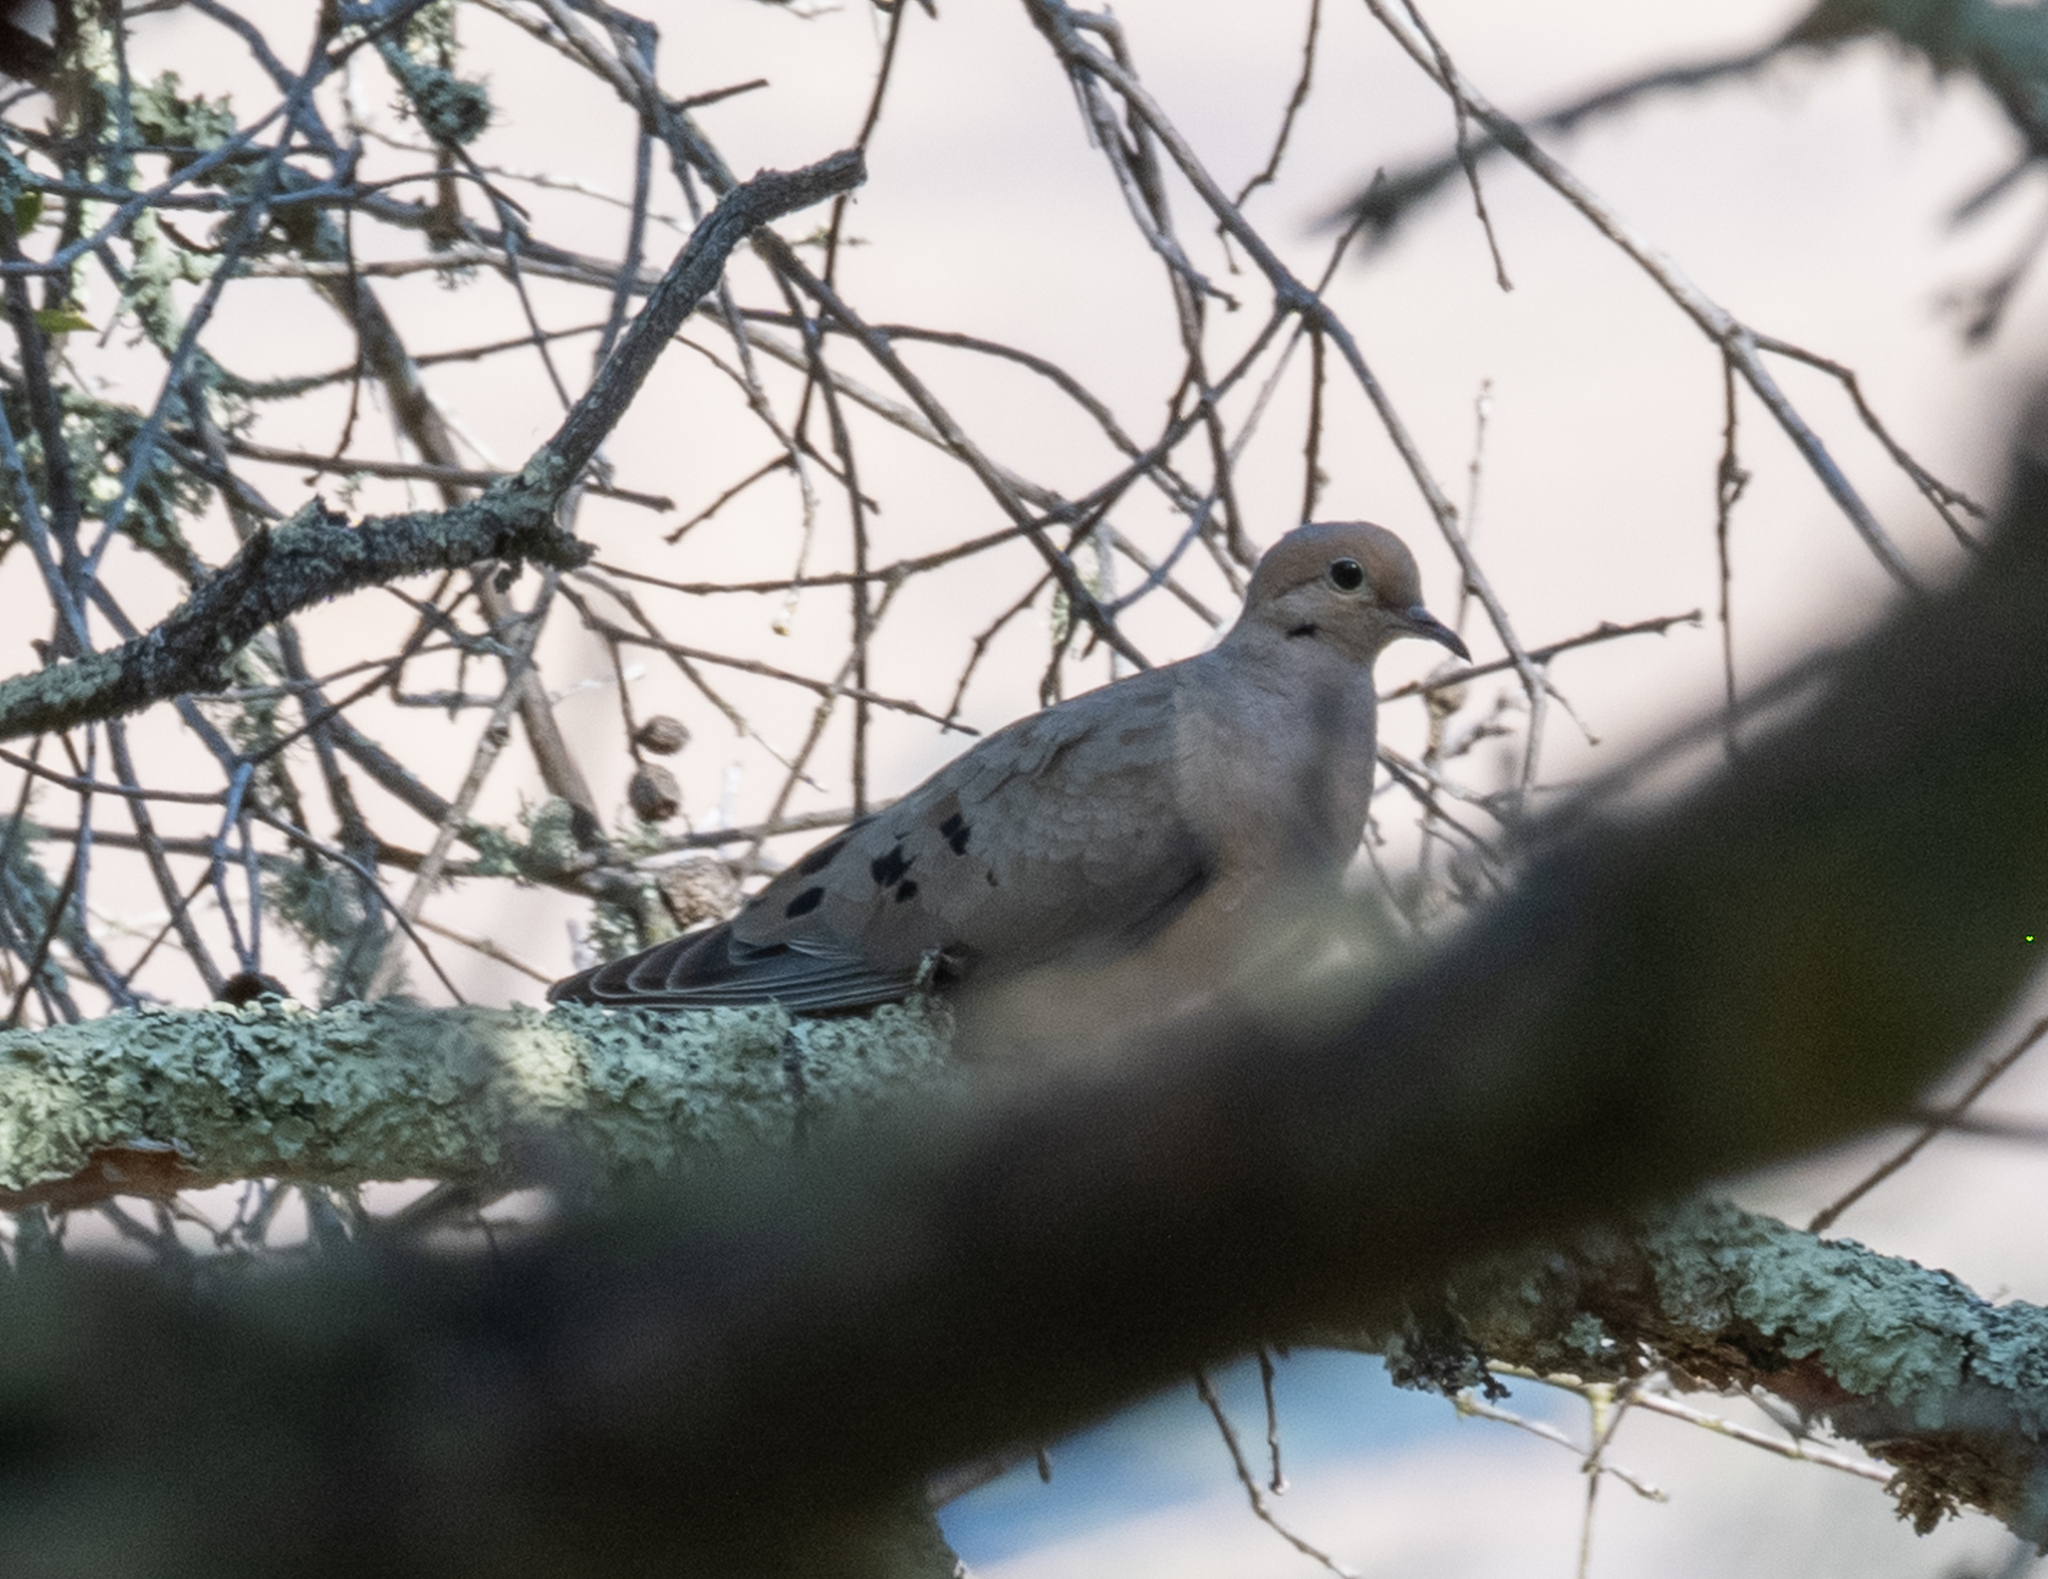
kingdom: Animalia
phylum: Chordata
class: Aves
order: Columbiformes
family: Columbidae
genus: Zenaida
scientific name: Zenaida macroura
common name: Mourning dove
